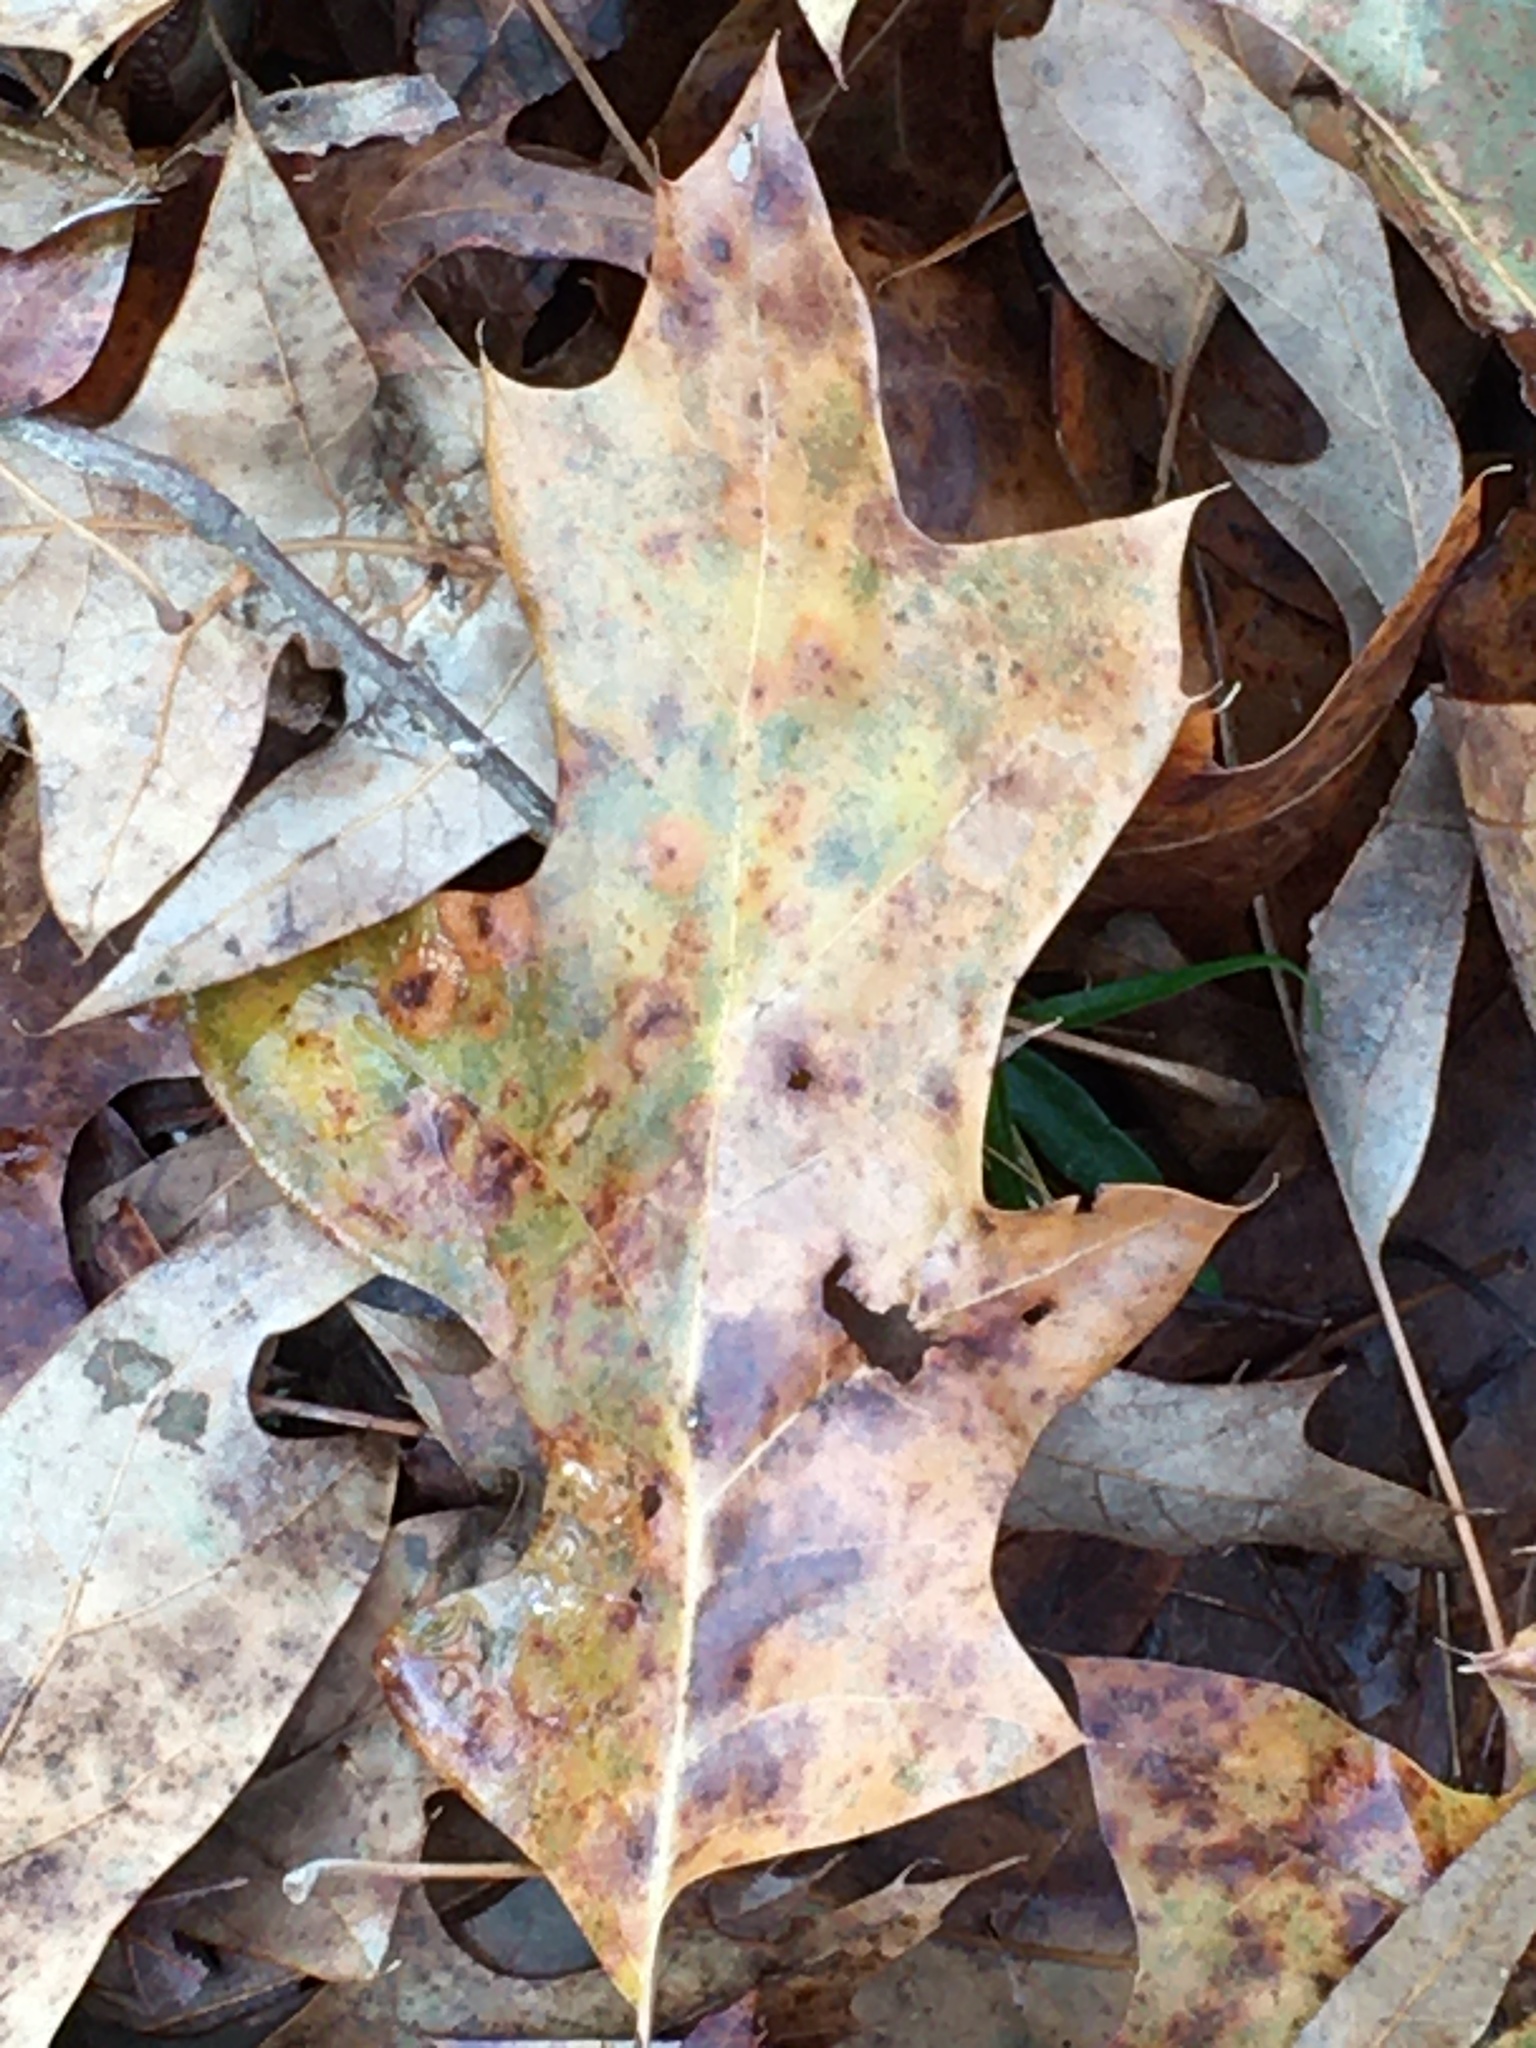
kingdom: Plantae
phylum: Tracheophyta
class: Magnoliopsida
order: Fagales
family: Fagaceae
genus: Quercus
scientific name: Quercus pagoda
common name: Cherrybark oak
